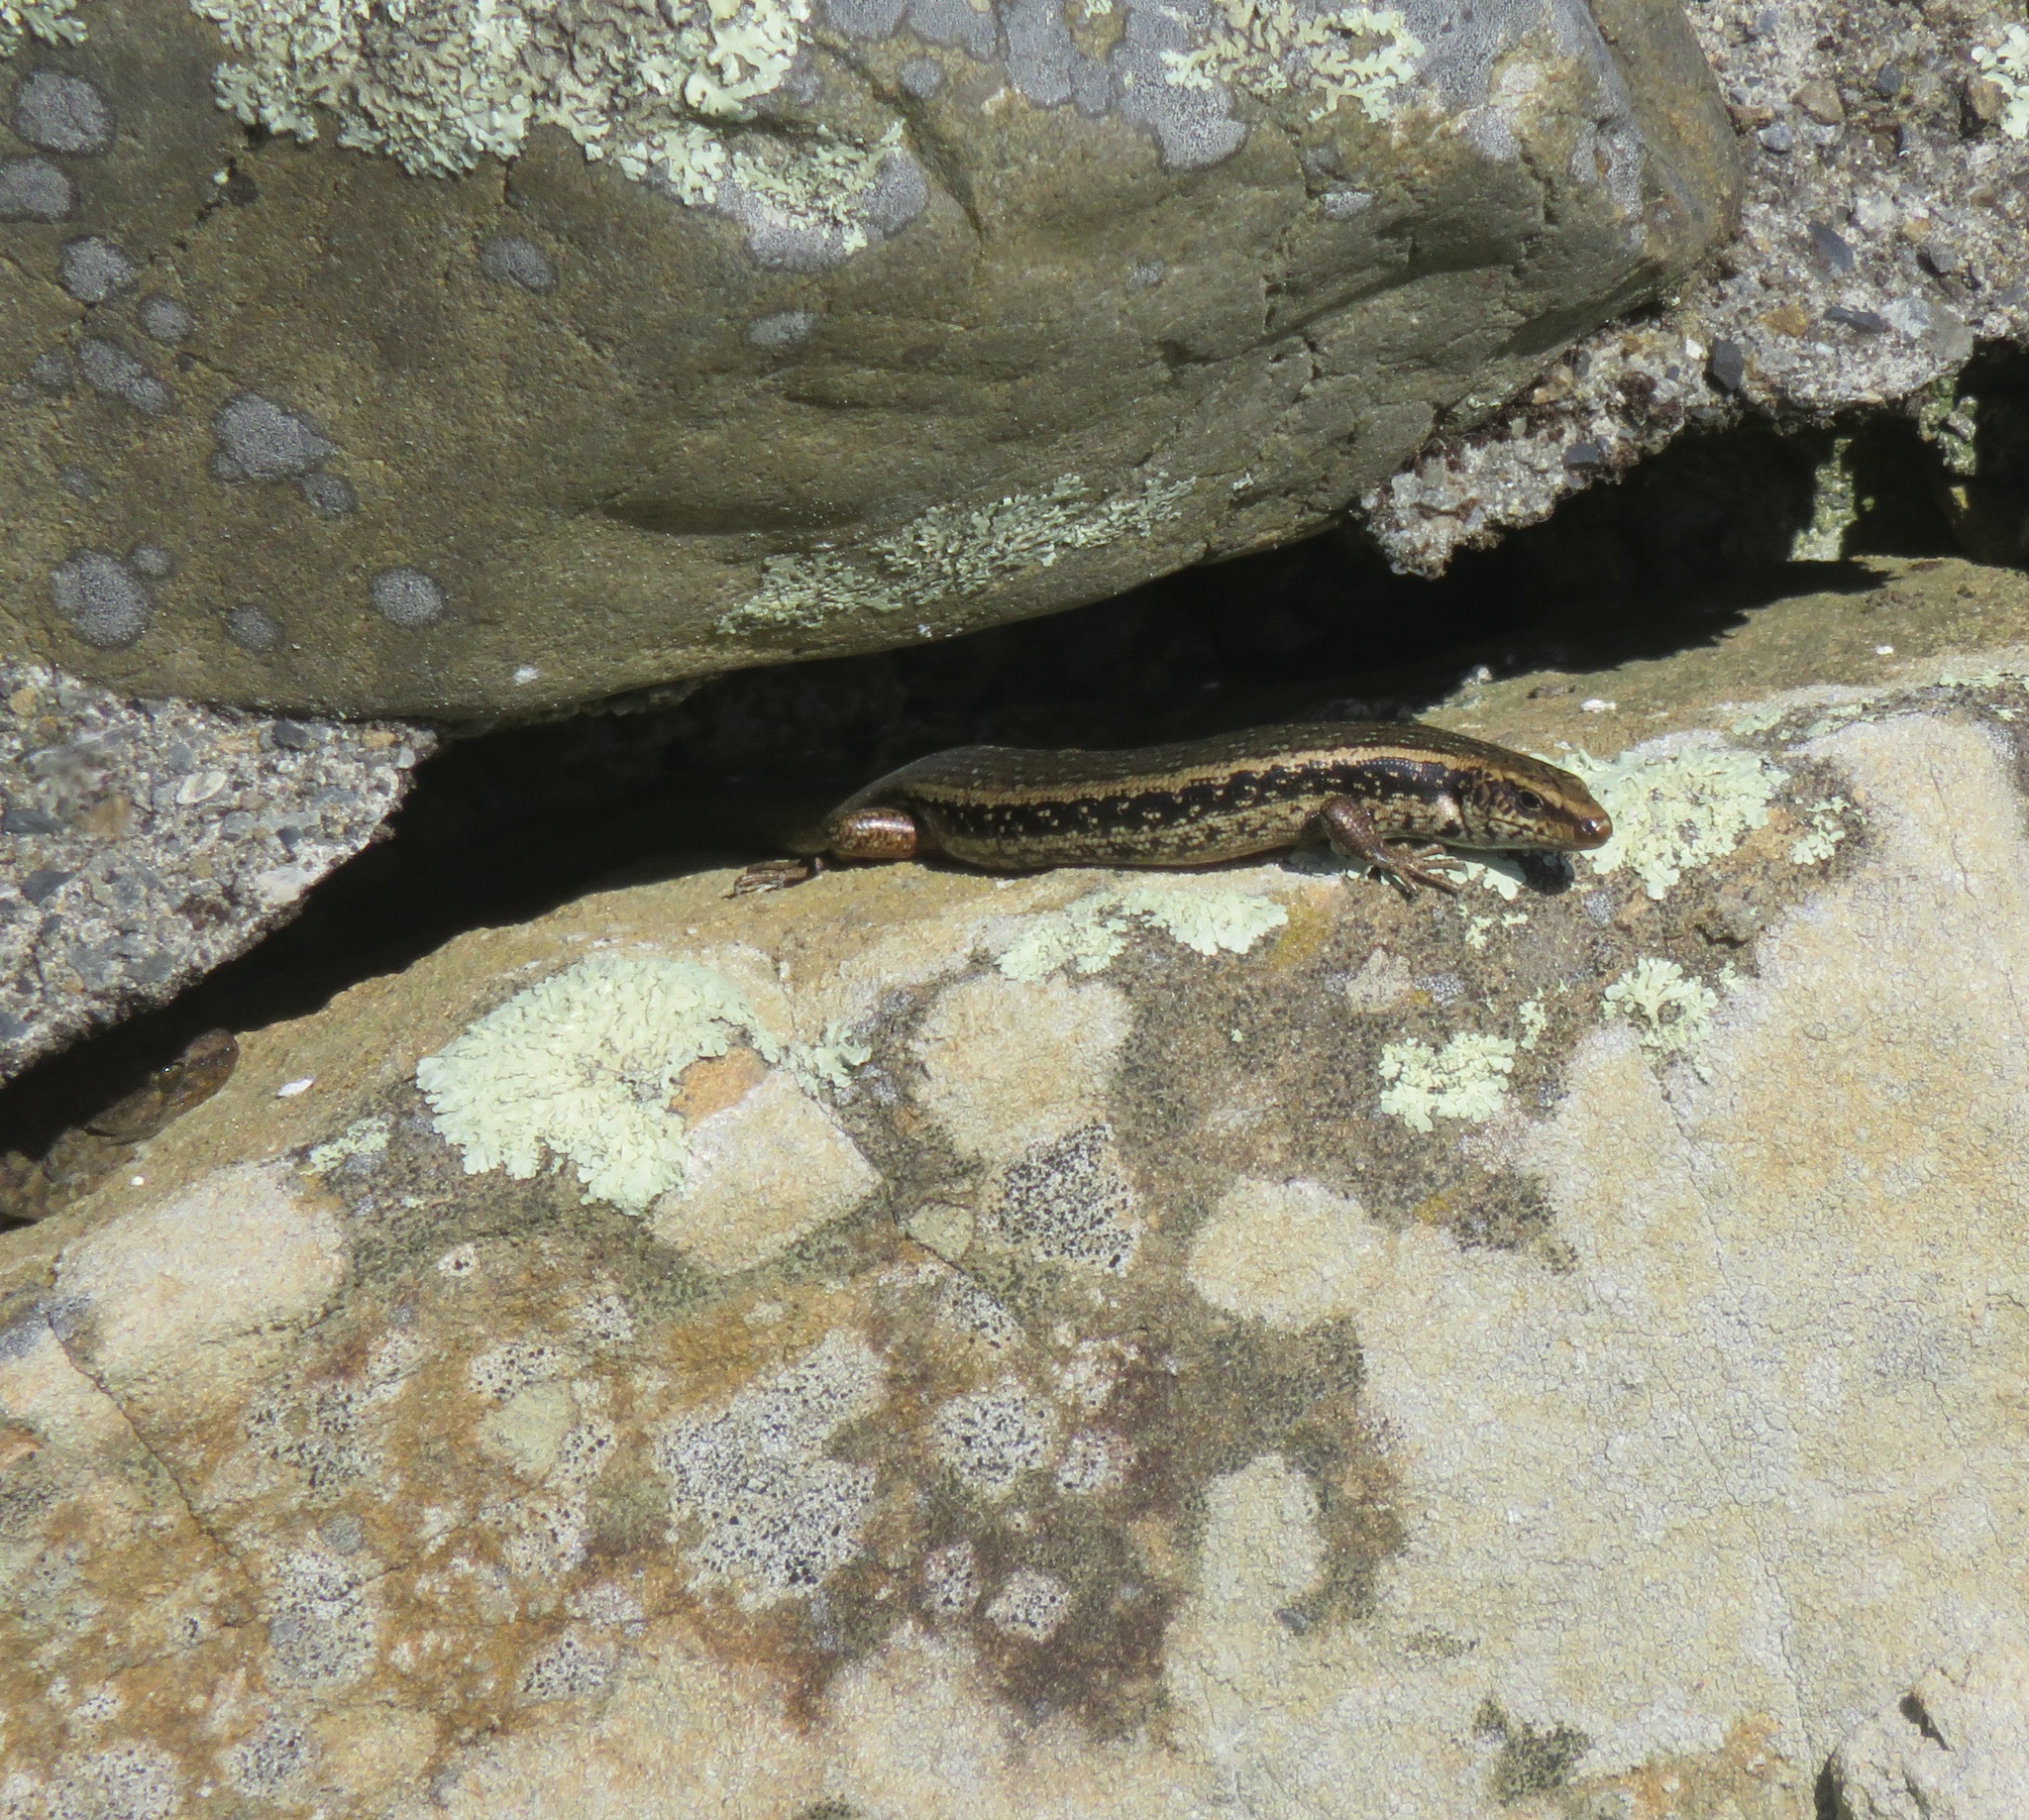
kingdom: Animalia
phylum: Chordata
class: Squamata
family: Scincidae
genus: Oligosoma
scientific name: Oligosoma kokowai
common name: Northern spotted skink
